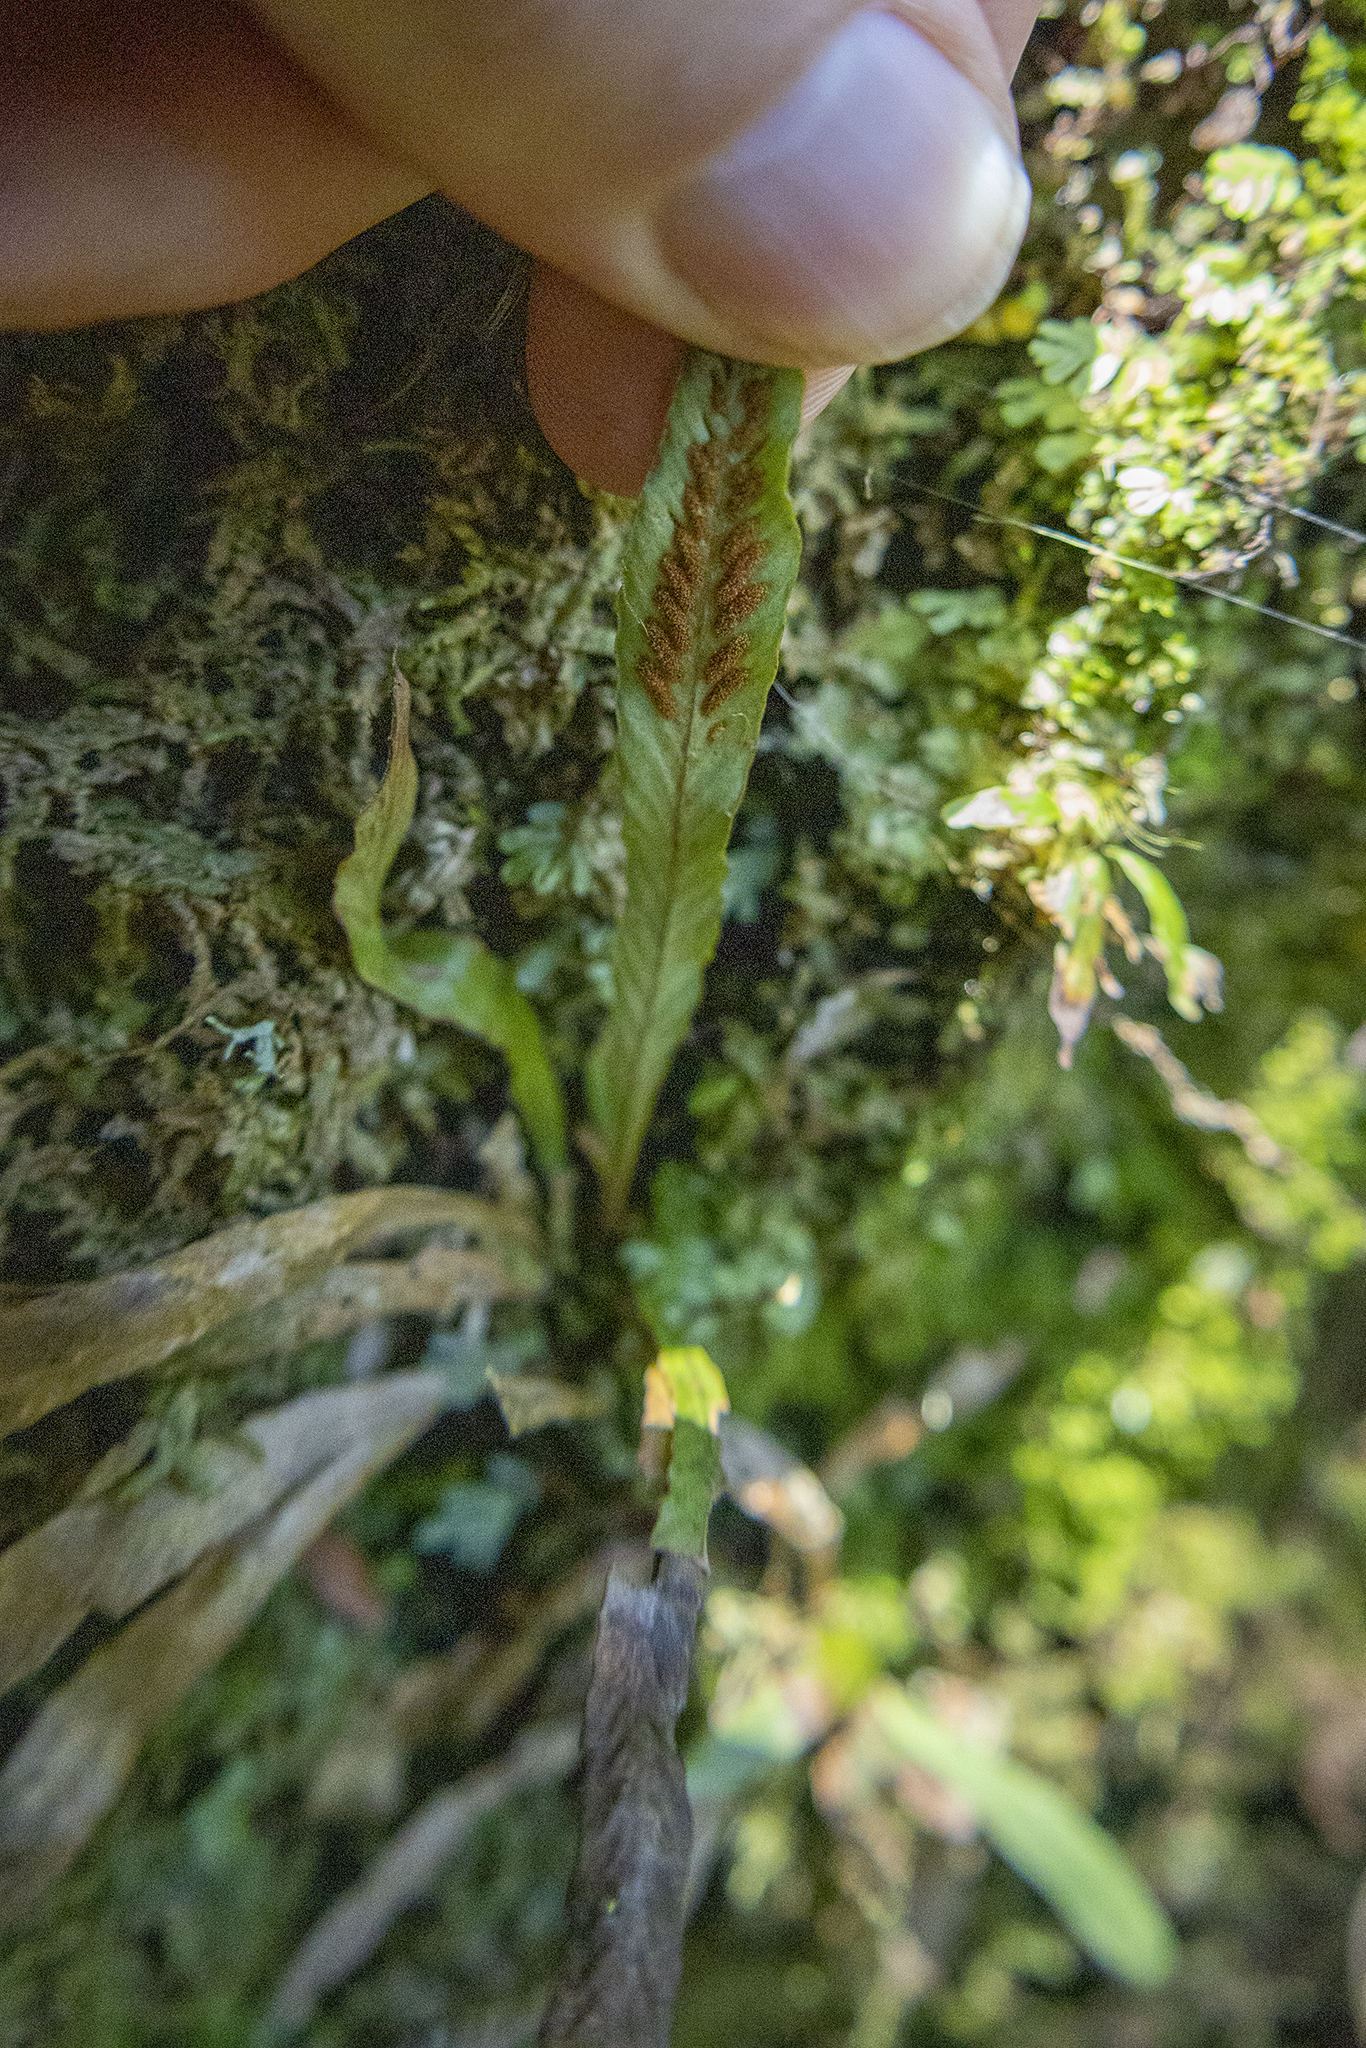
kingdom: Plantae
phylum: Tracheophyta
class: Polypodiopsida
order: Polypodiales
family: Polypodiaceae
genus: Notogrammitis
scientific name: Notogrammitis billardierei
